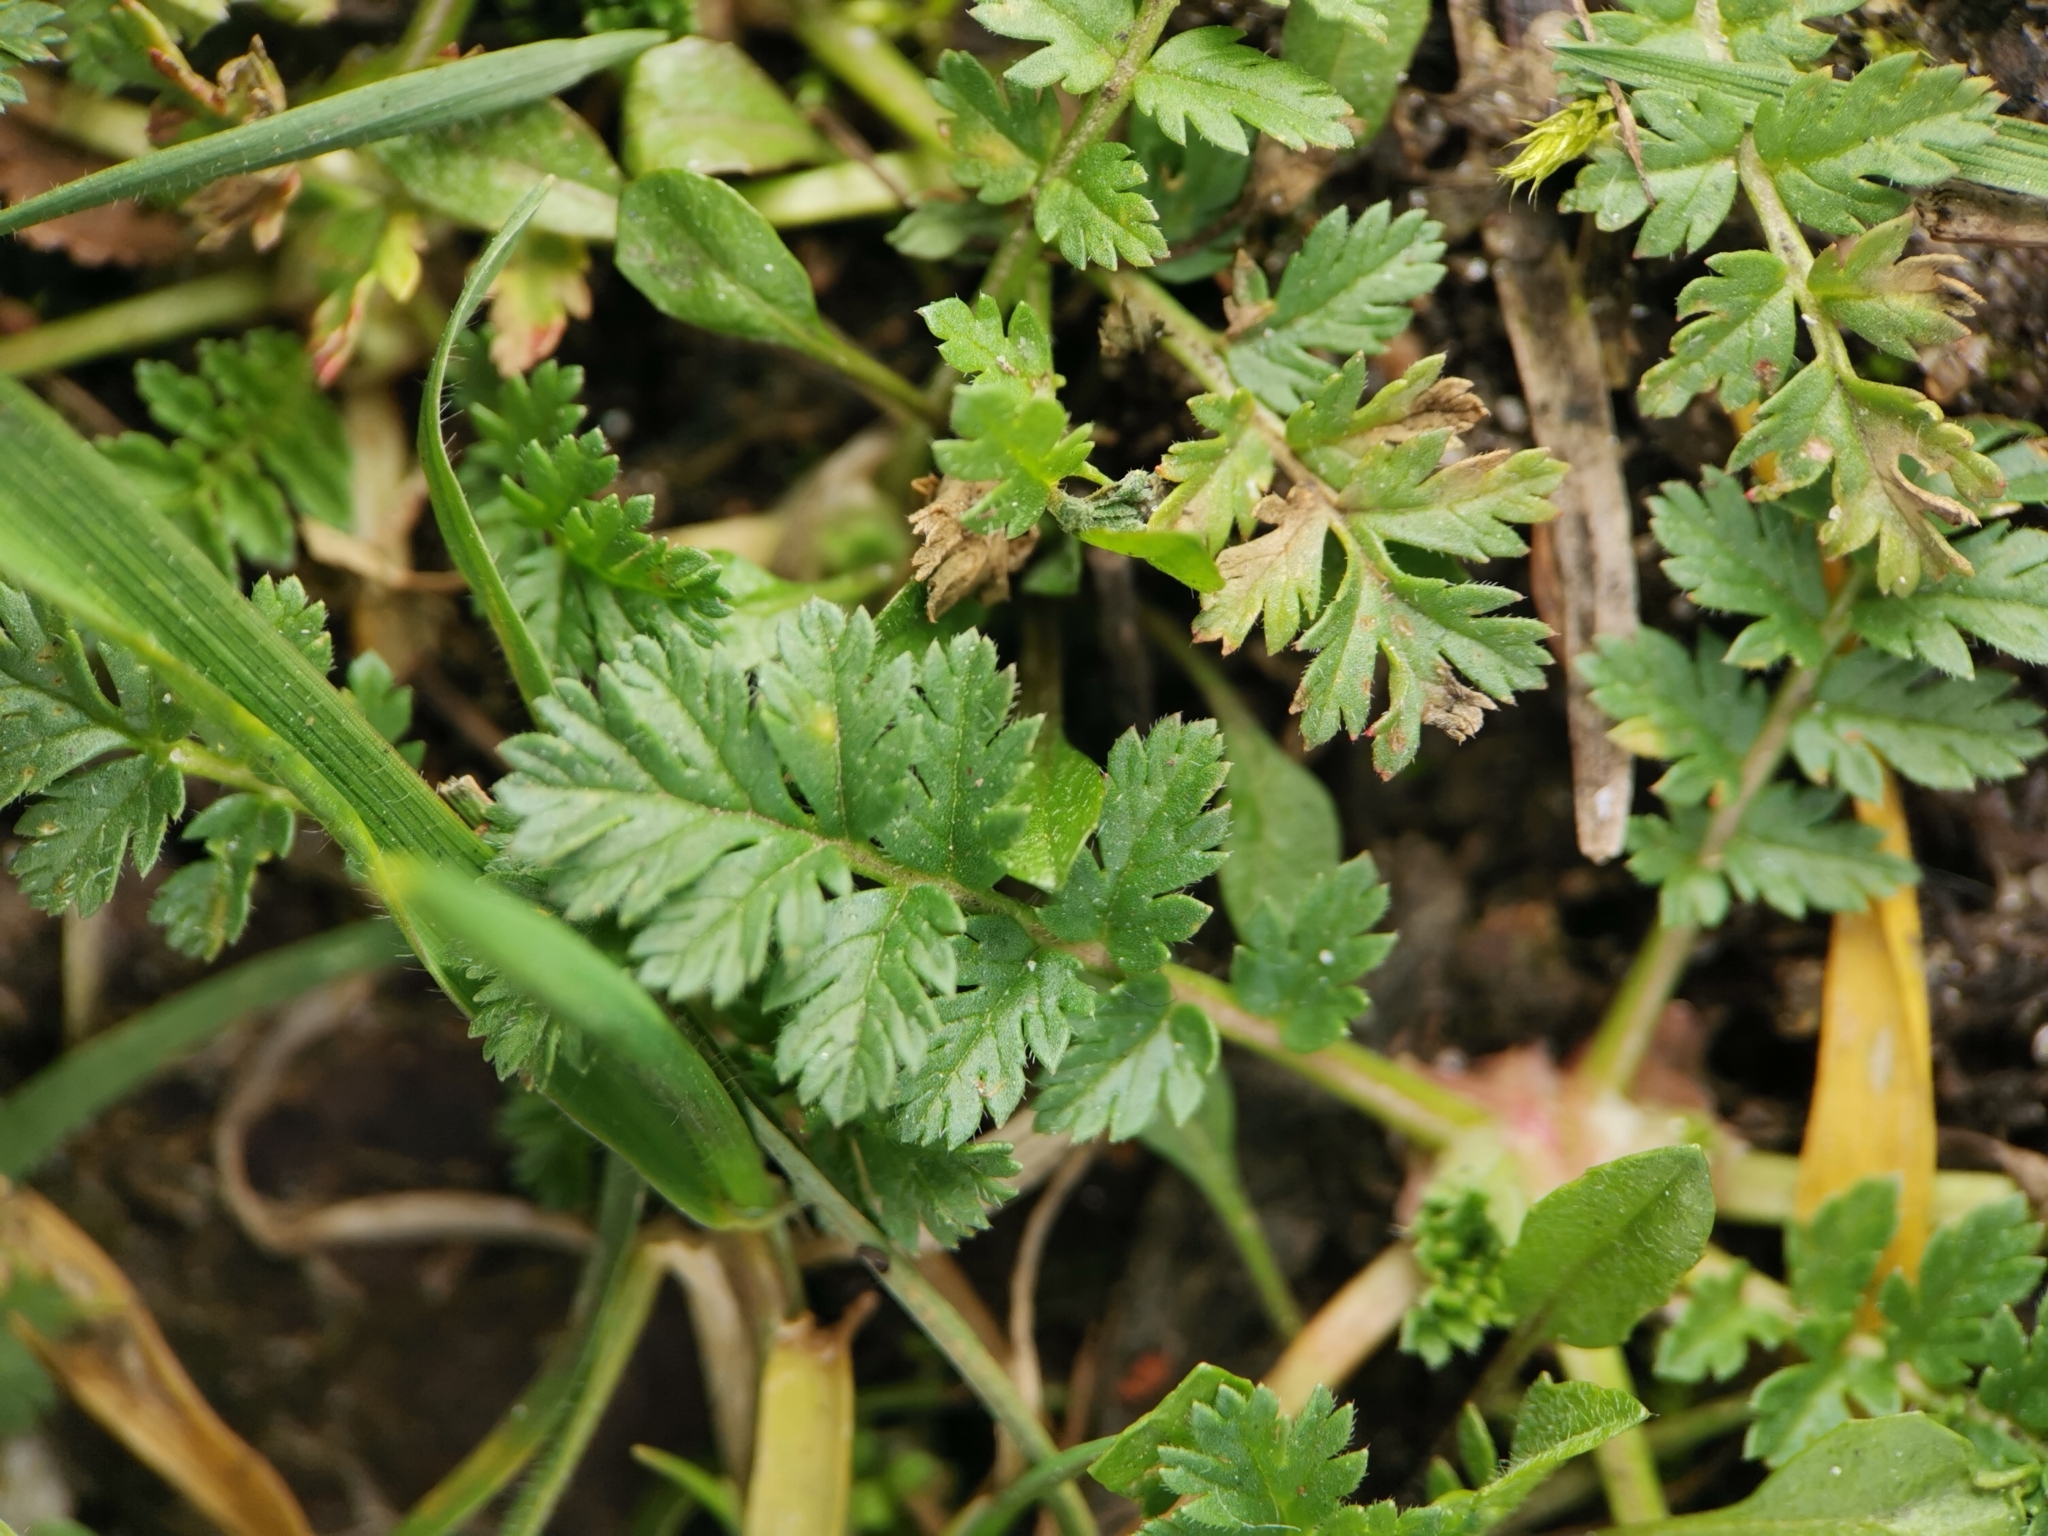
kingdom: Plantae
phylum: Tracheophyta
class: Magnoliopsida
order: Geraniales
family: Geraniaceae
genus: Erodium
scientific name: Erodium cicutarium
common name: Common stork's-bill
